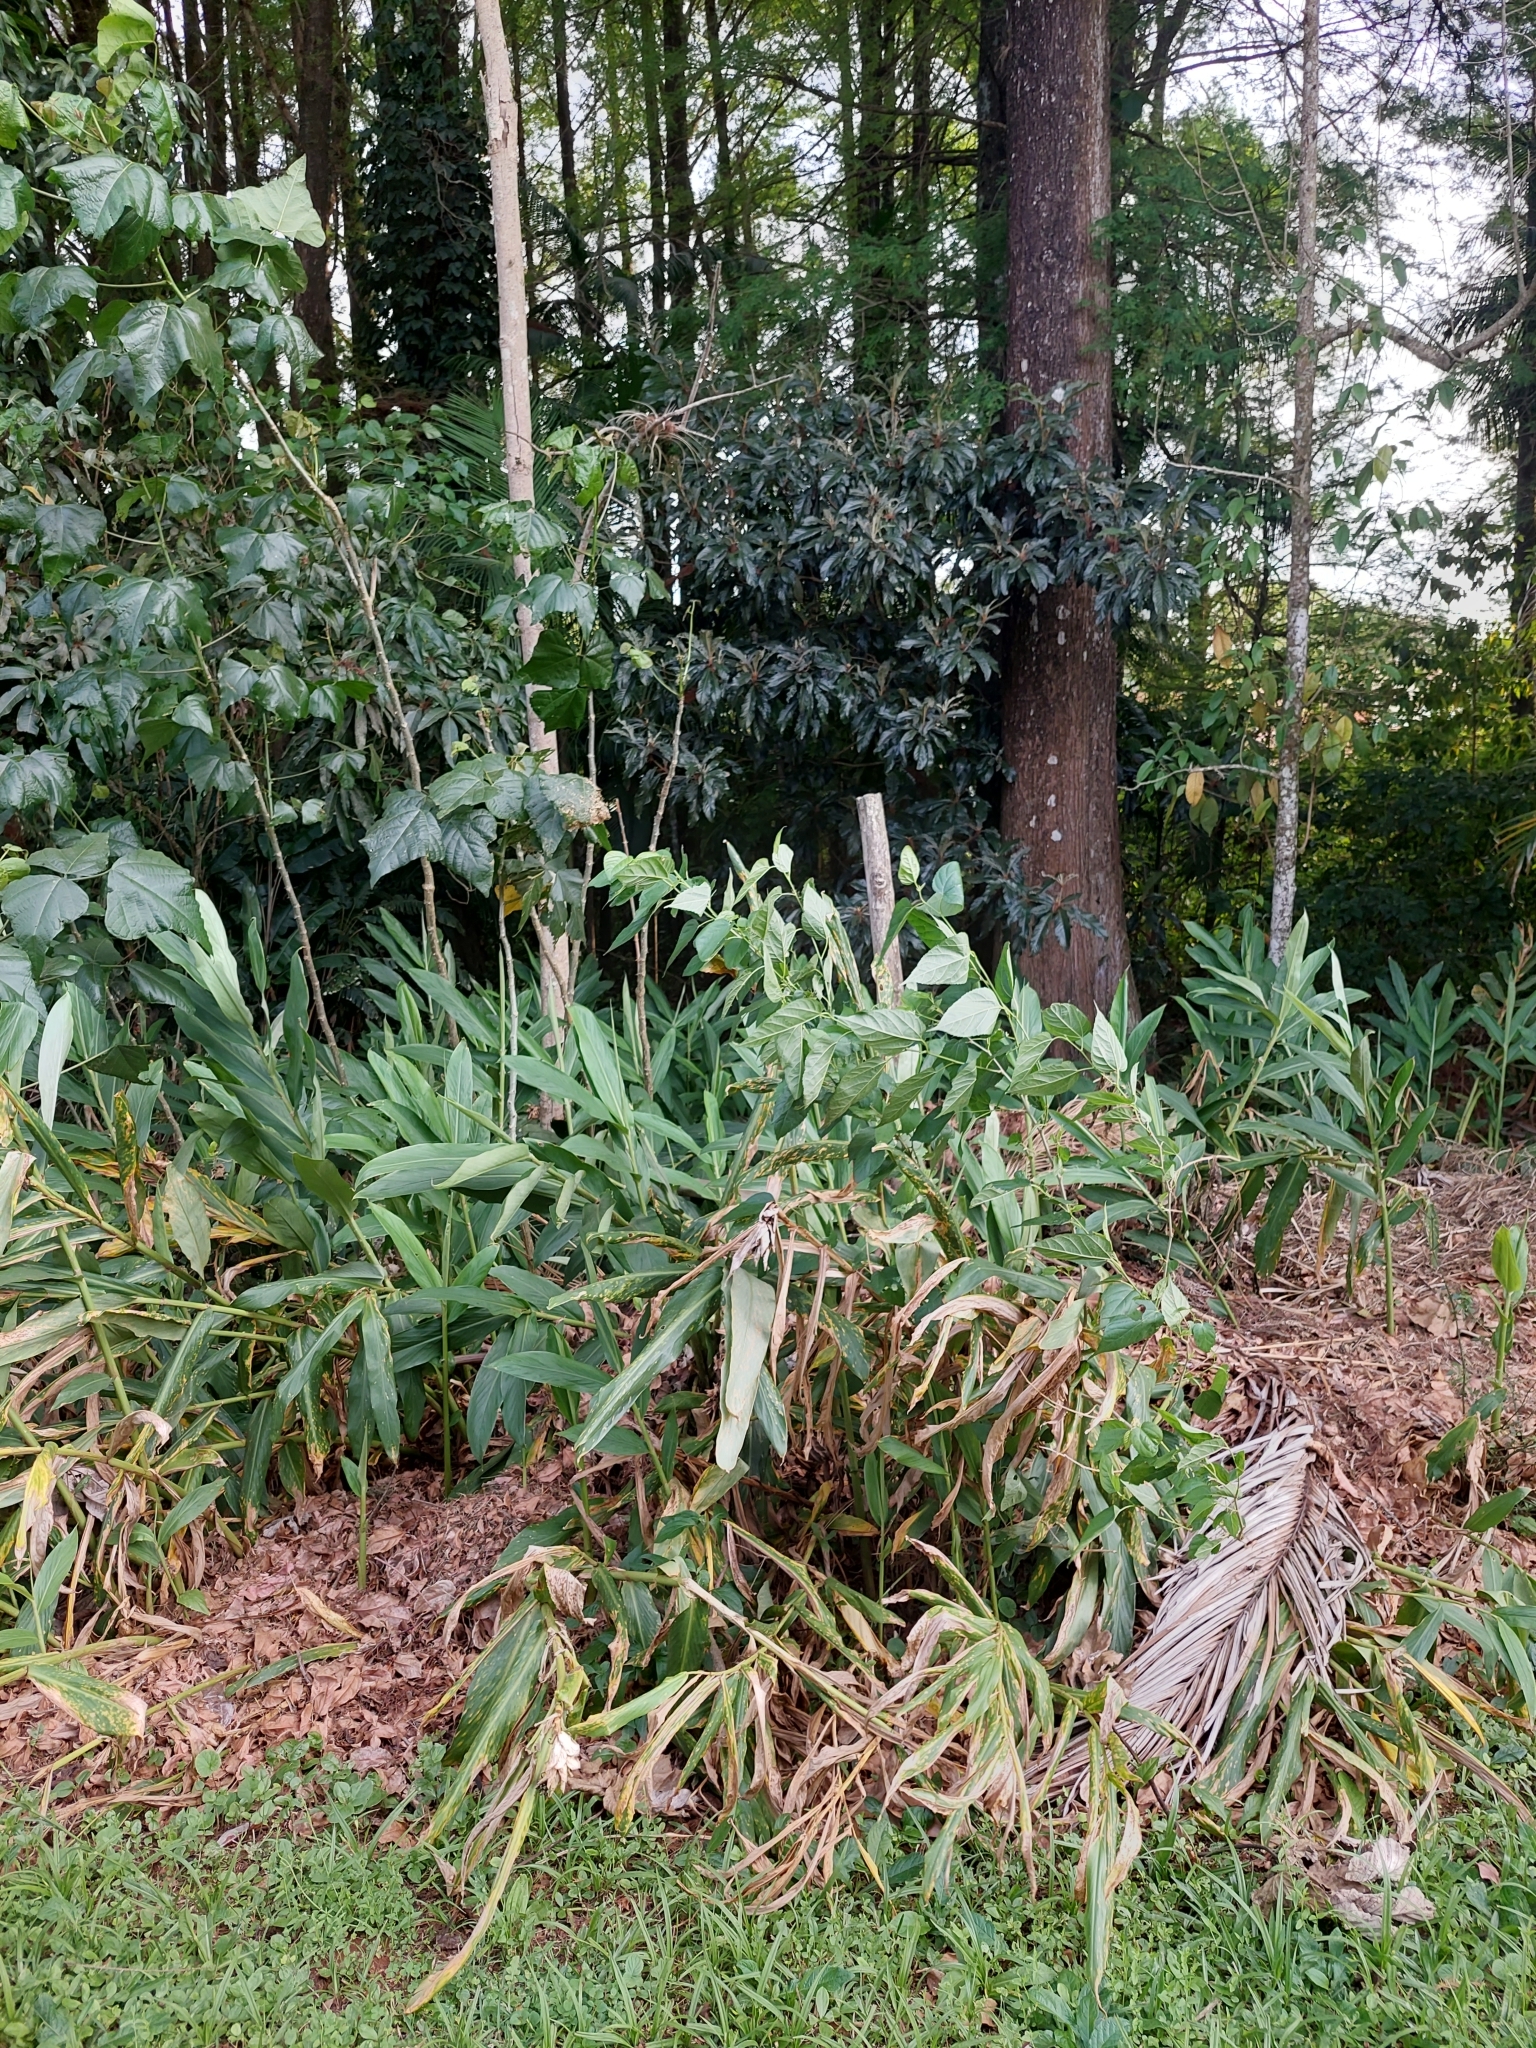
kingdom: Plantae
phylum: Tracheophyta
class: Liliopsida
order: Zingiberales
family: Zingiberaceae
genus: Hedychium
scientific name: Hedychium coronarium
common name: White garland-lily
